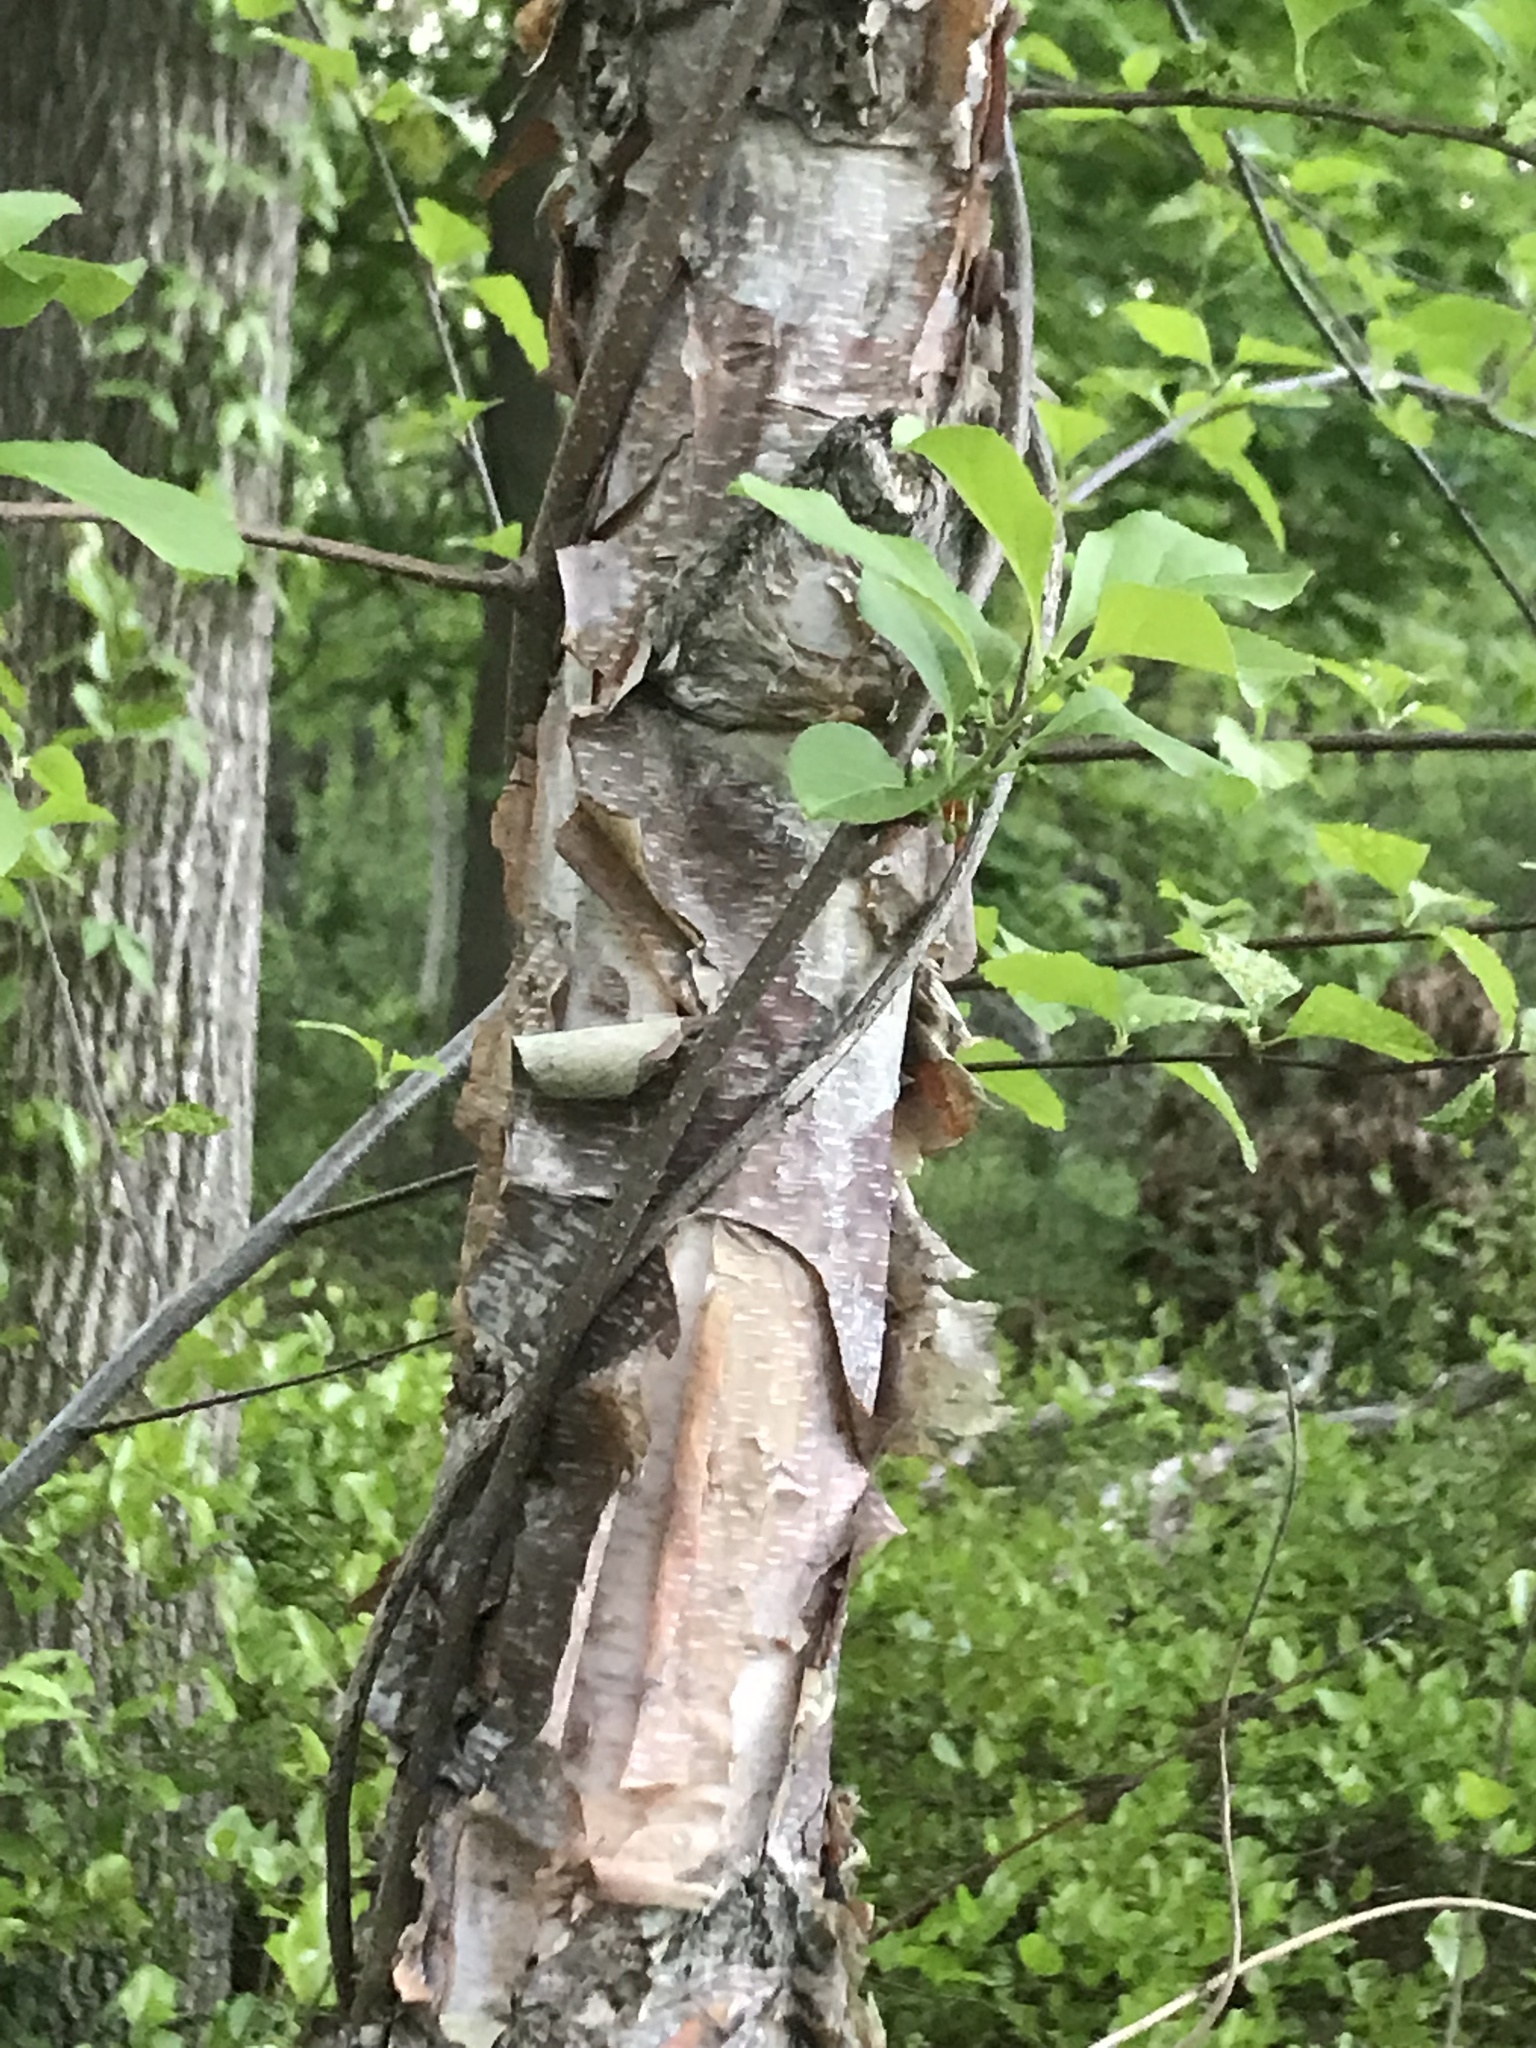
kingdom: Plantae
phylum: Tracheophyta
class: Magnoliopsida
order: Fagales
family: Betulaceae
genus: Betula
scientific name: Betula nigra
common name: Black birch
